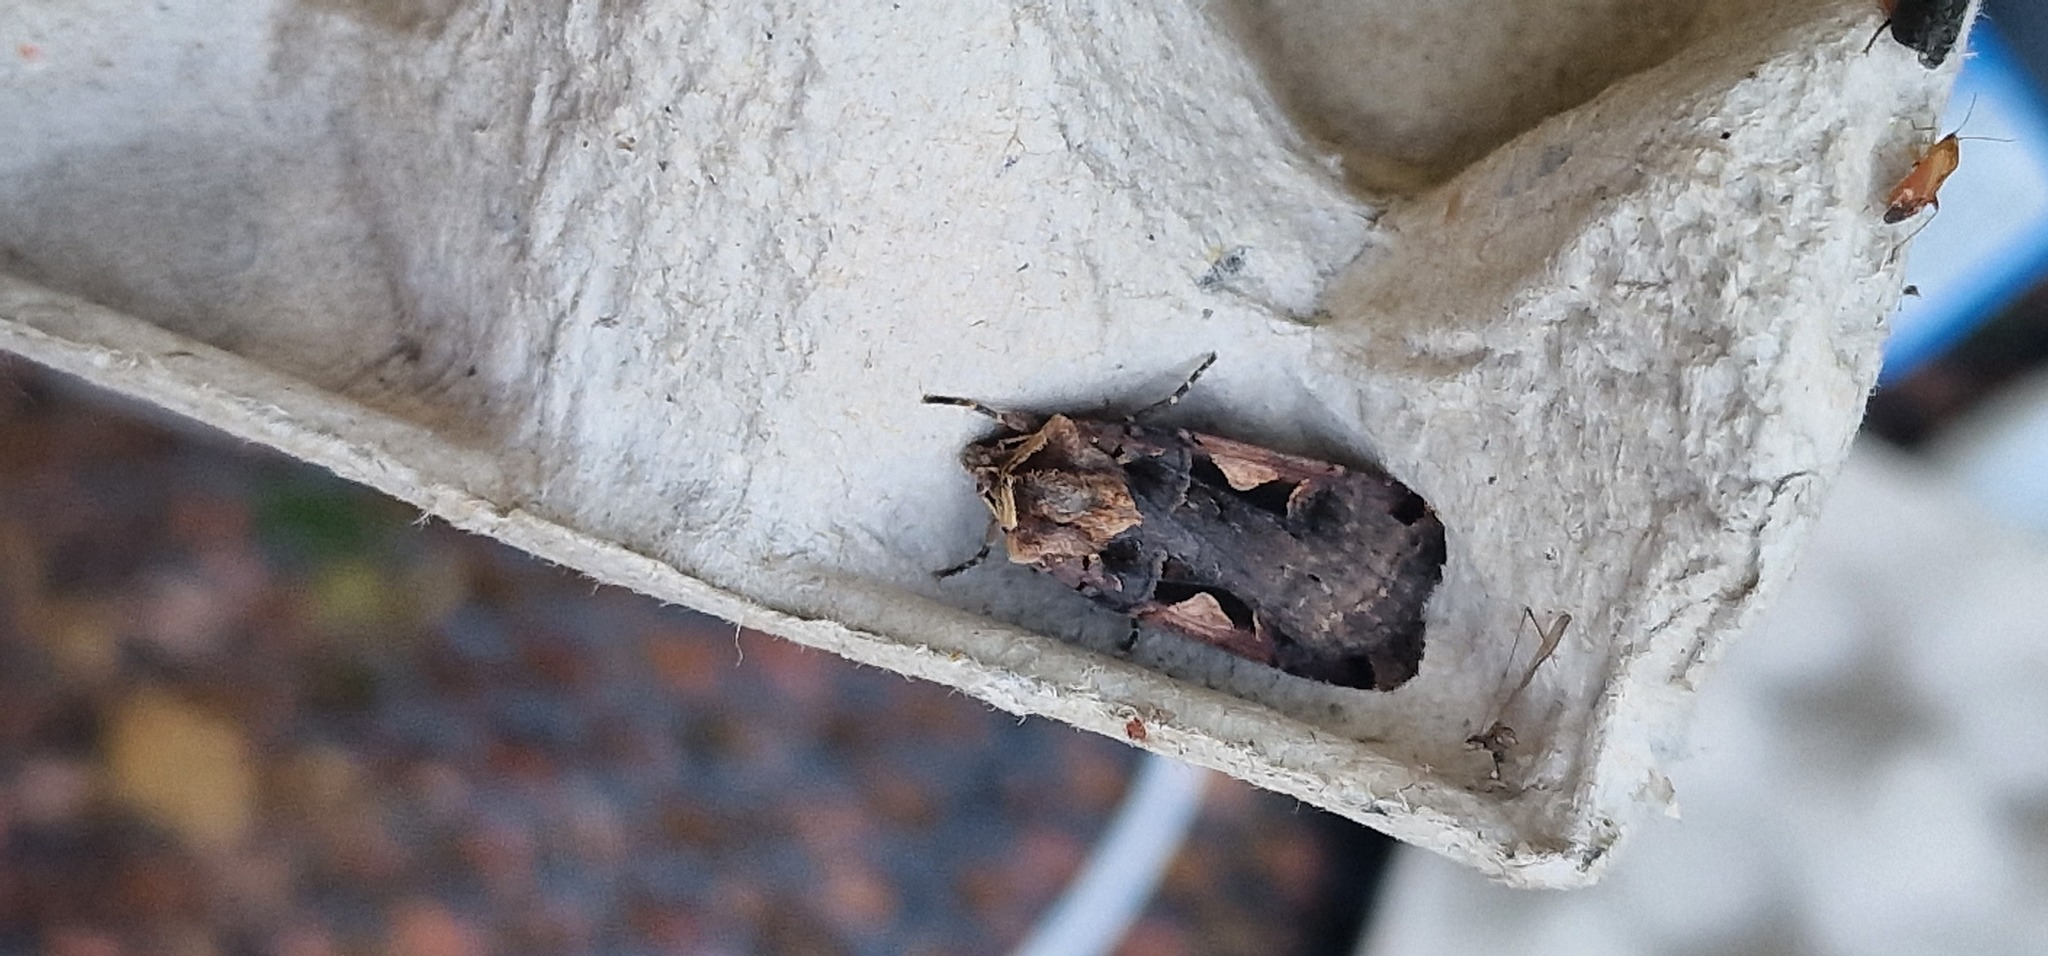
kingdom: Animalia
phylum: Arthropoda
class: Insecta
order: Lepidoptera
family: Noctuidae
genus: Xestia
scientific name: Xestia c-nigrum
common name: Setaceous hebrew character
